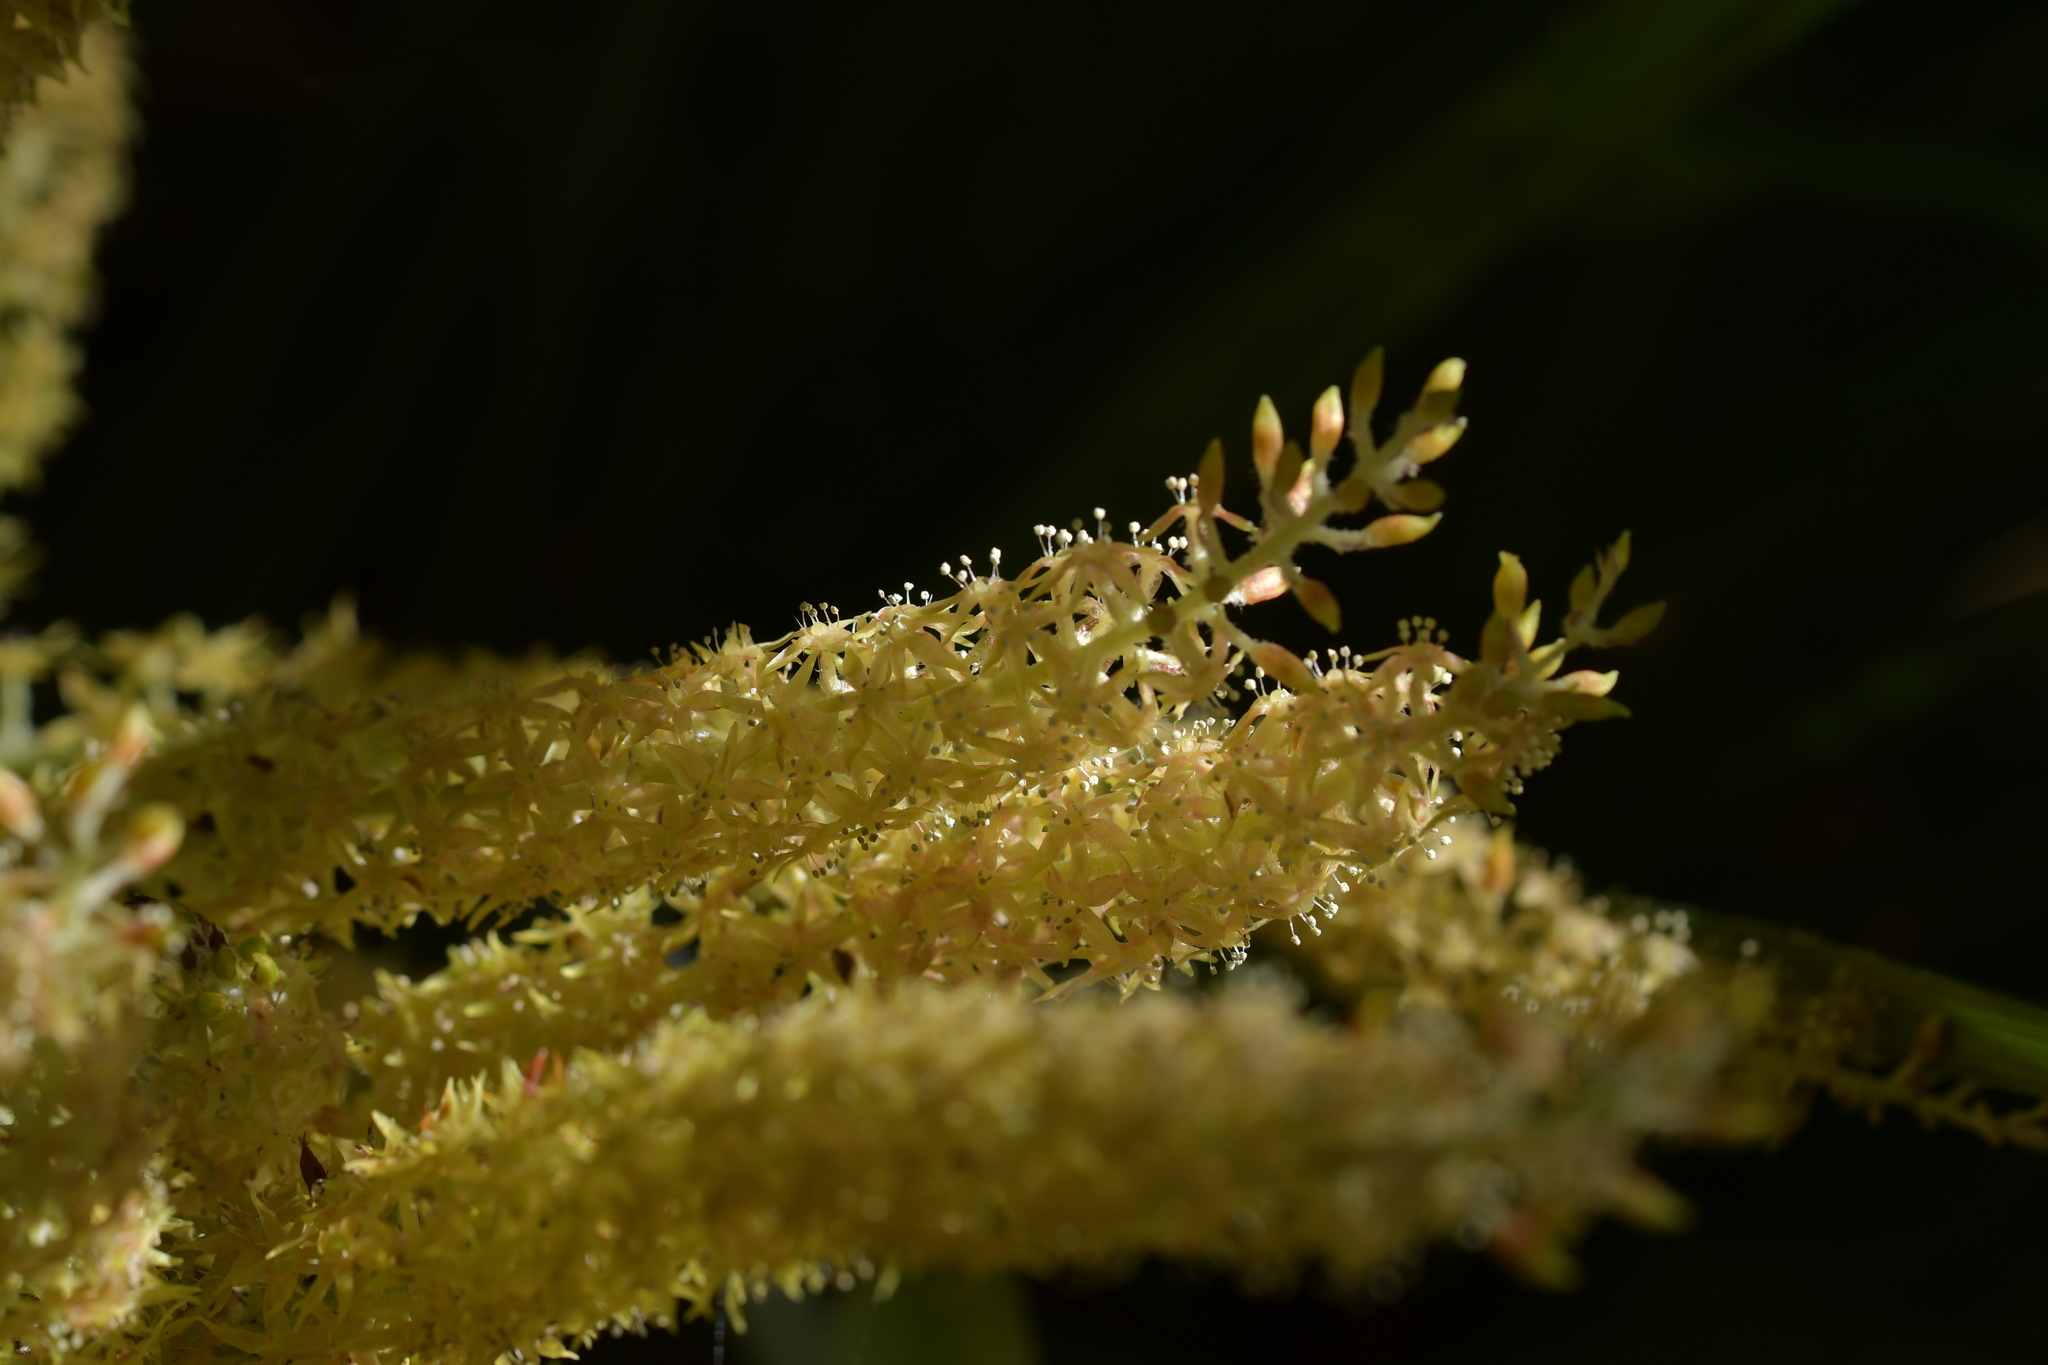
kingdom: Plantae
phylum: Tracheophyta
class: Liliopsida
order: Asparagales
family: Asteliaceae
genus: Astelia
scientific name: Astelia solandri
